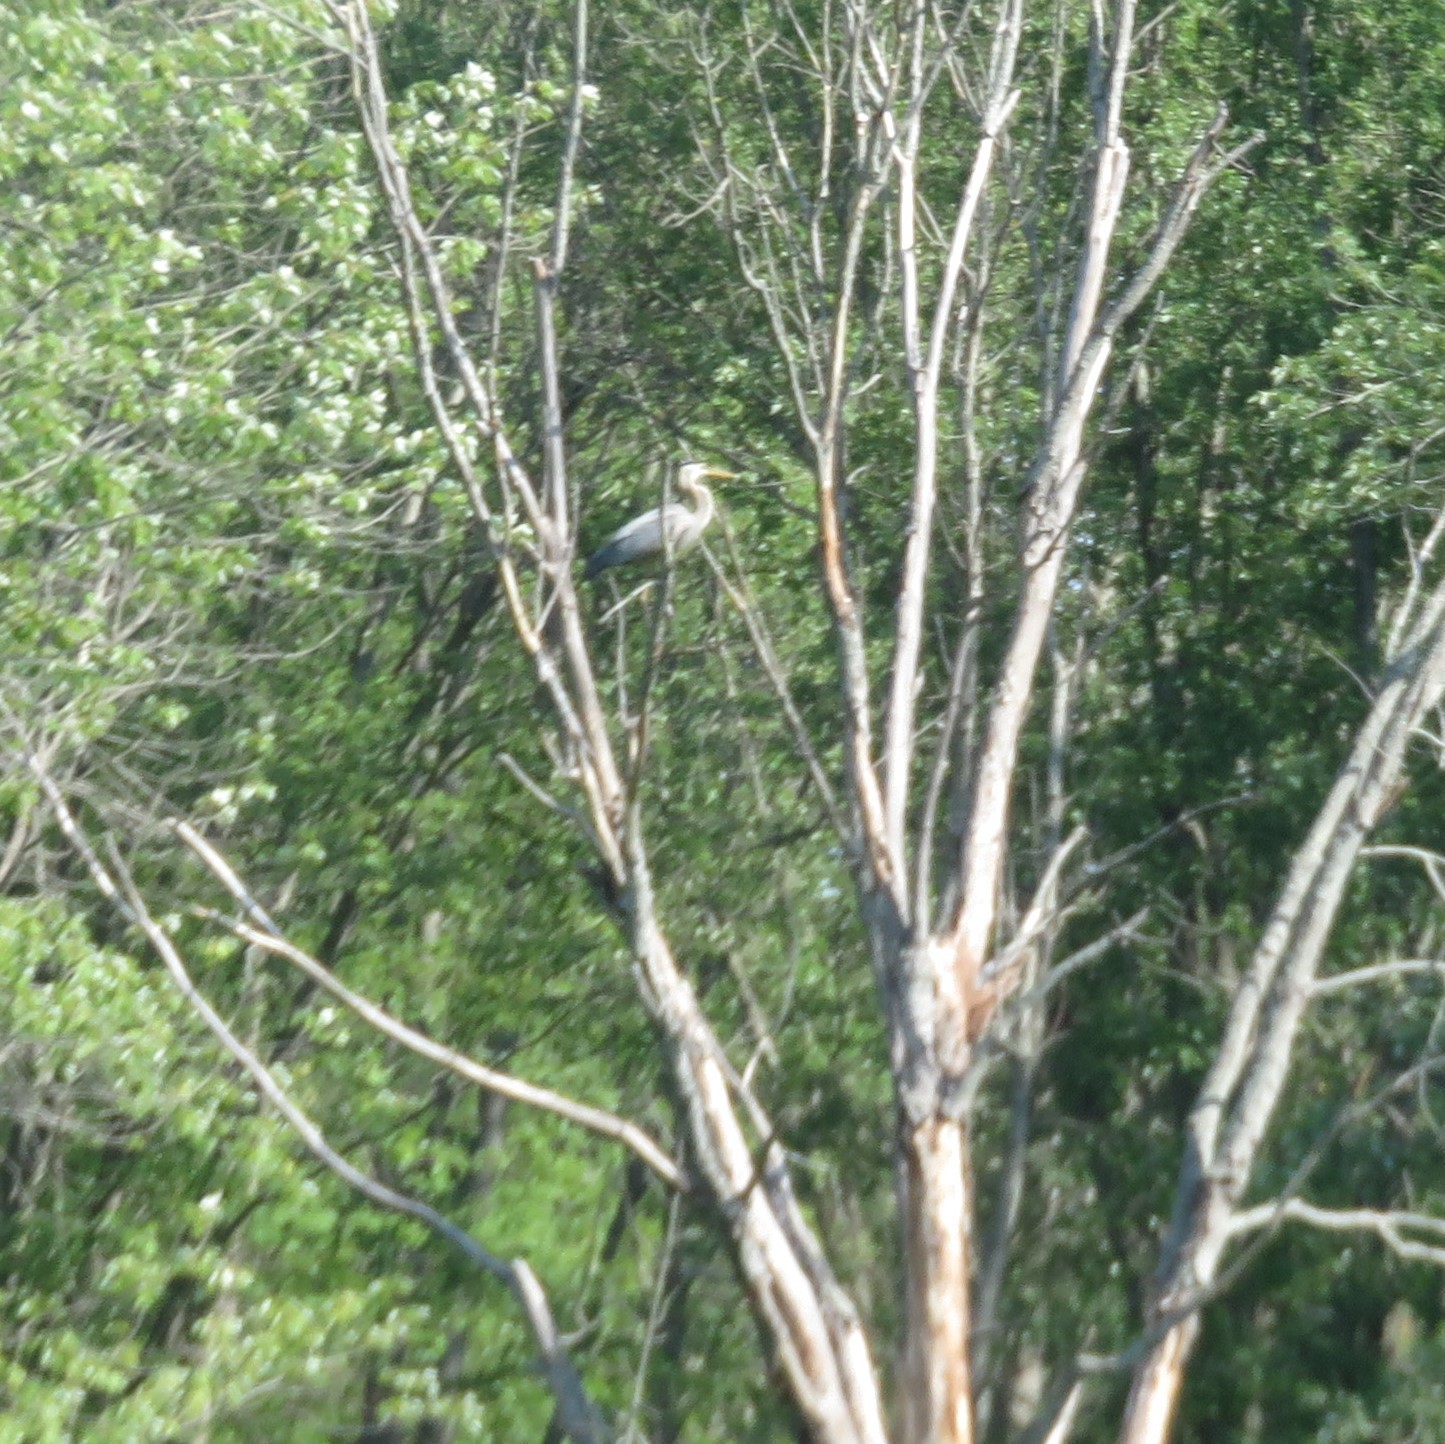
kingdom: Animalia
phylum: Chordata
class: Aves
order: Pelecaniformes
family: Ardeidae
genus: Ardea
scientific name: Ardea herodias
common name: Great blue heron
